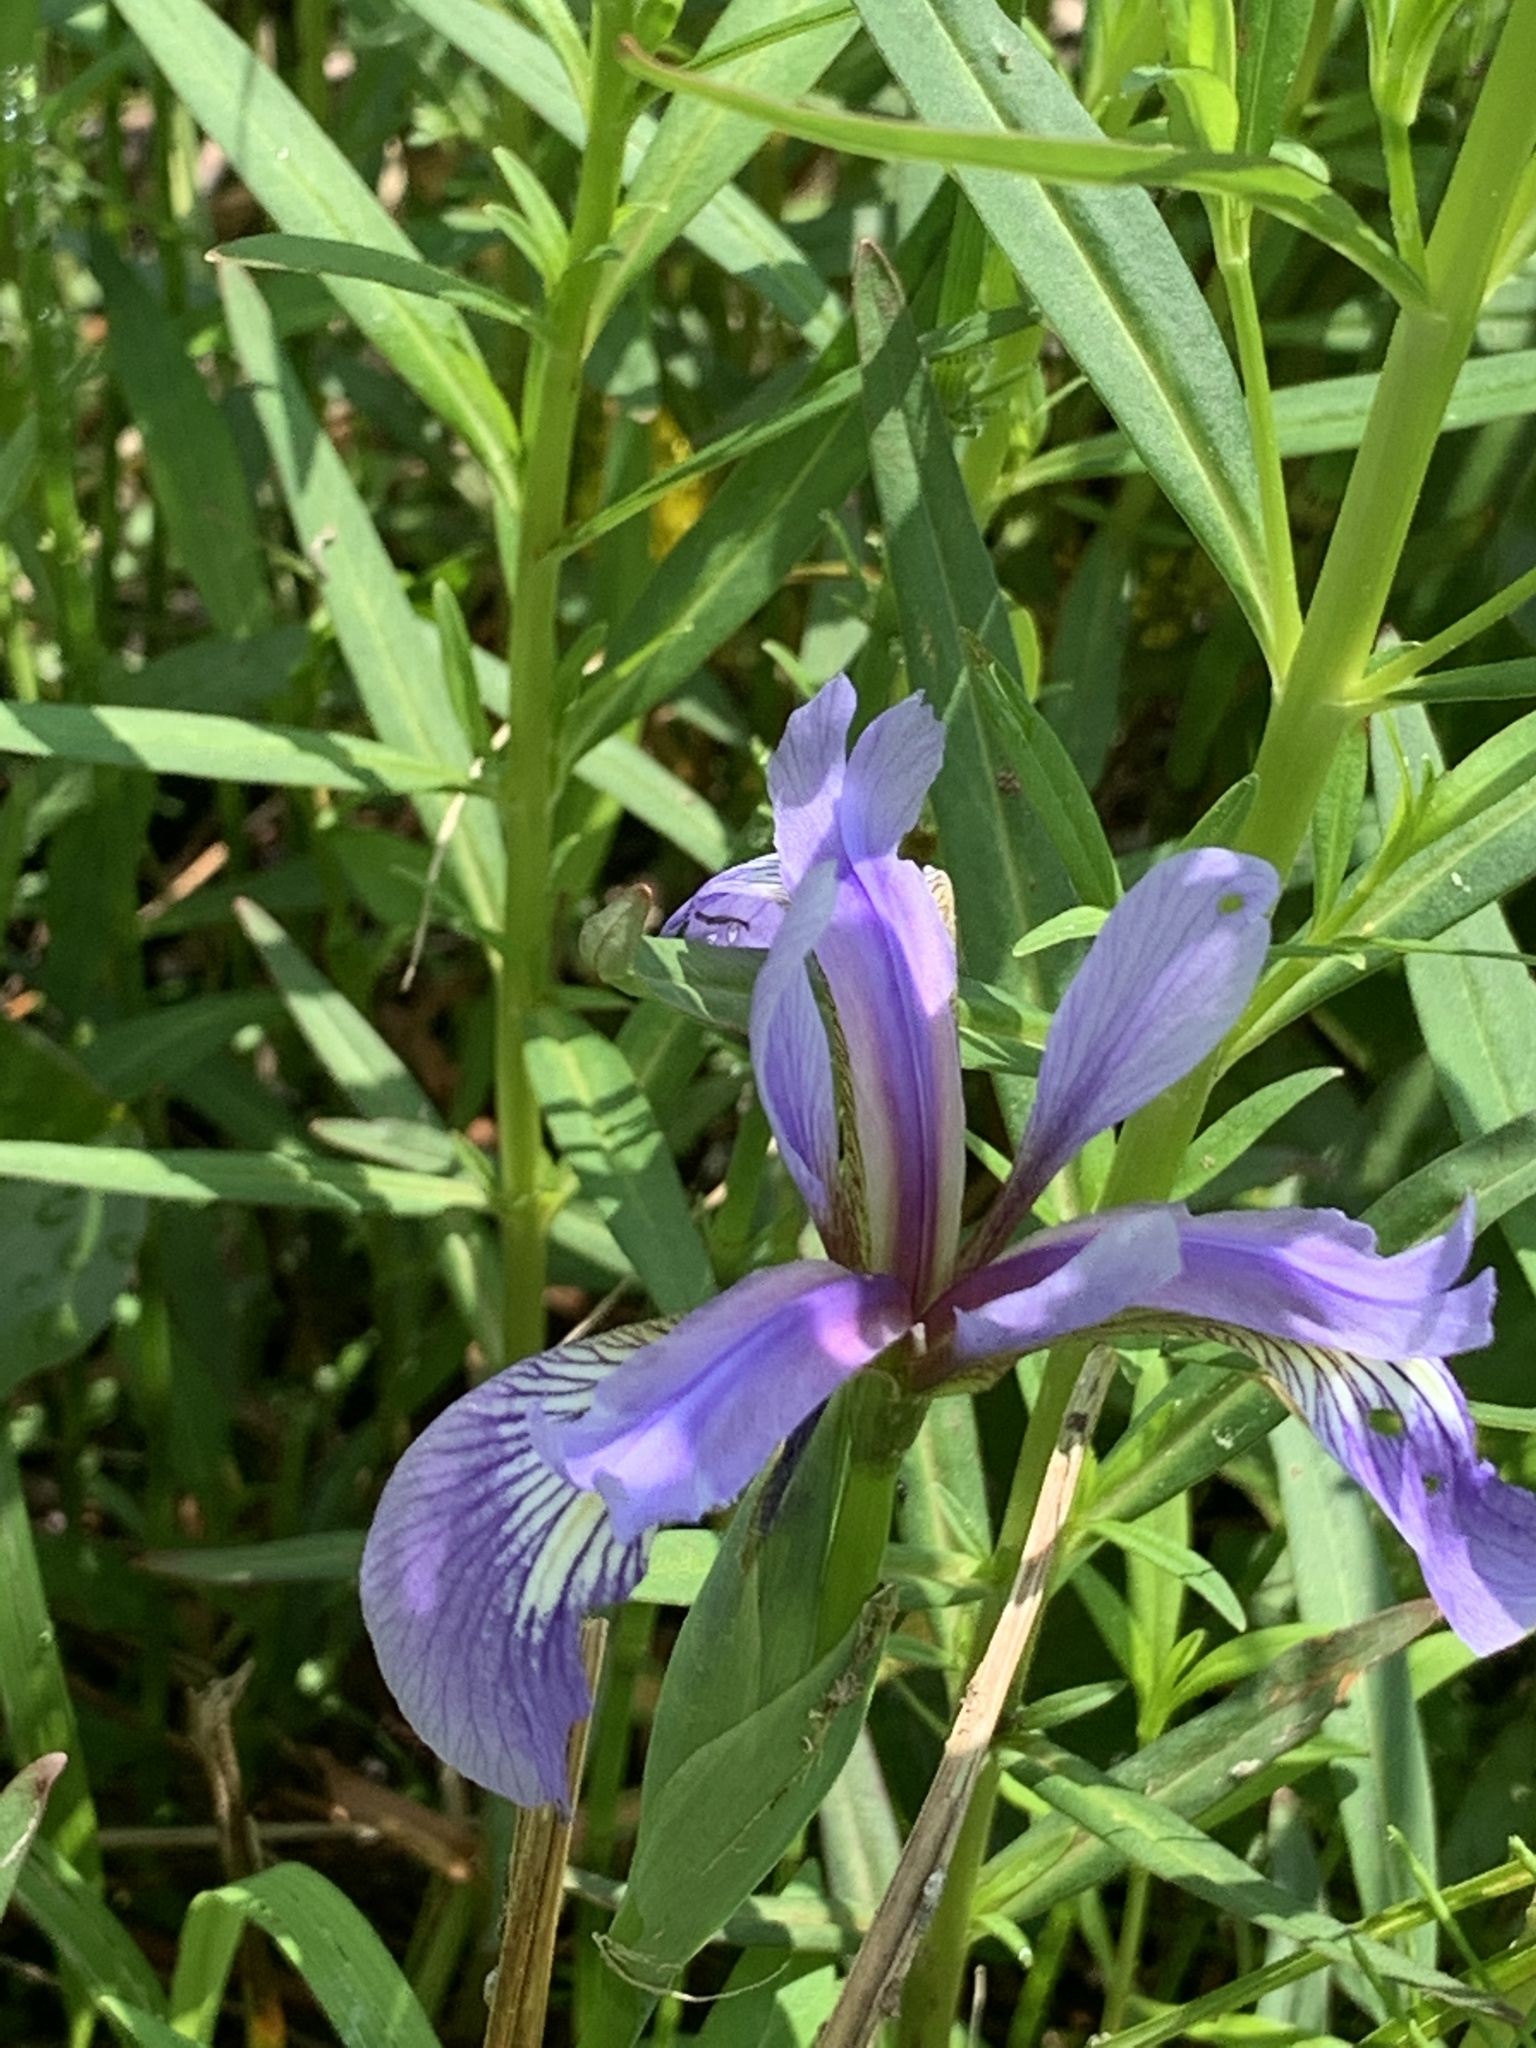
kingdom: Plantae
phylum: Tracheophyta
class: Liliopsida
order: Asparagales
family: Iridaceae
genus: Iris
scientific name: Iris versicolor
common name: Purple iris
